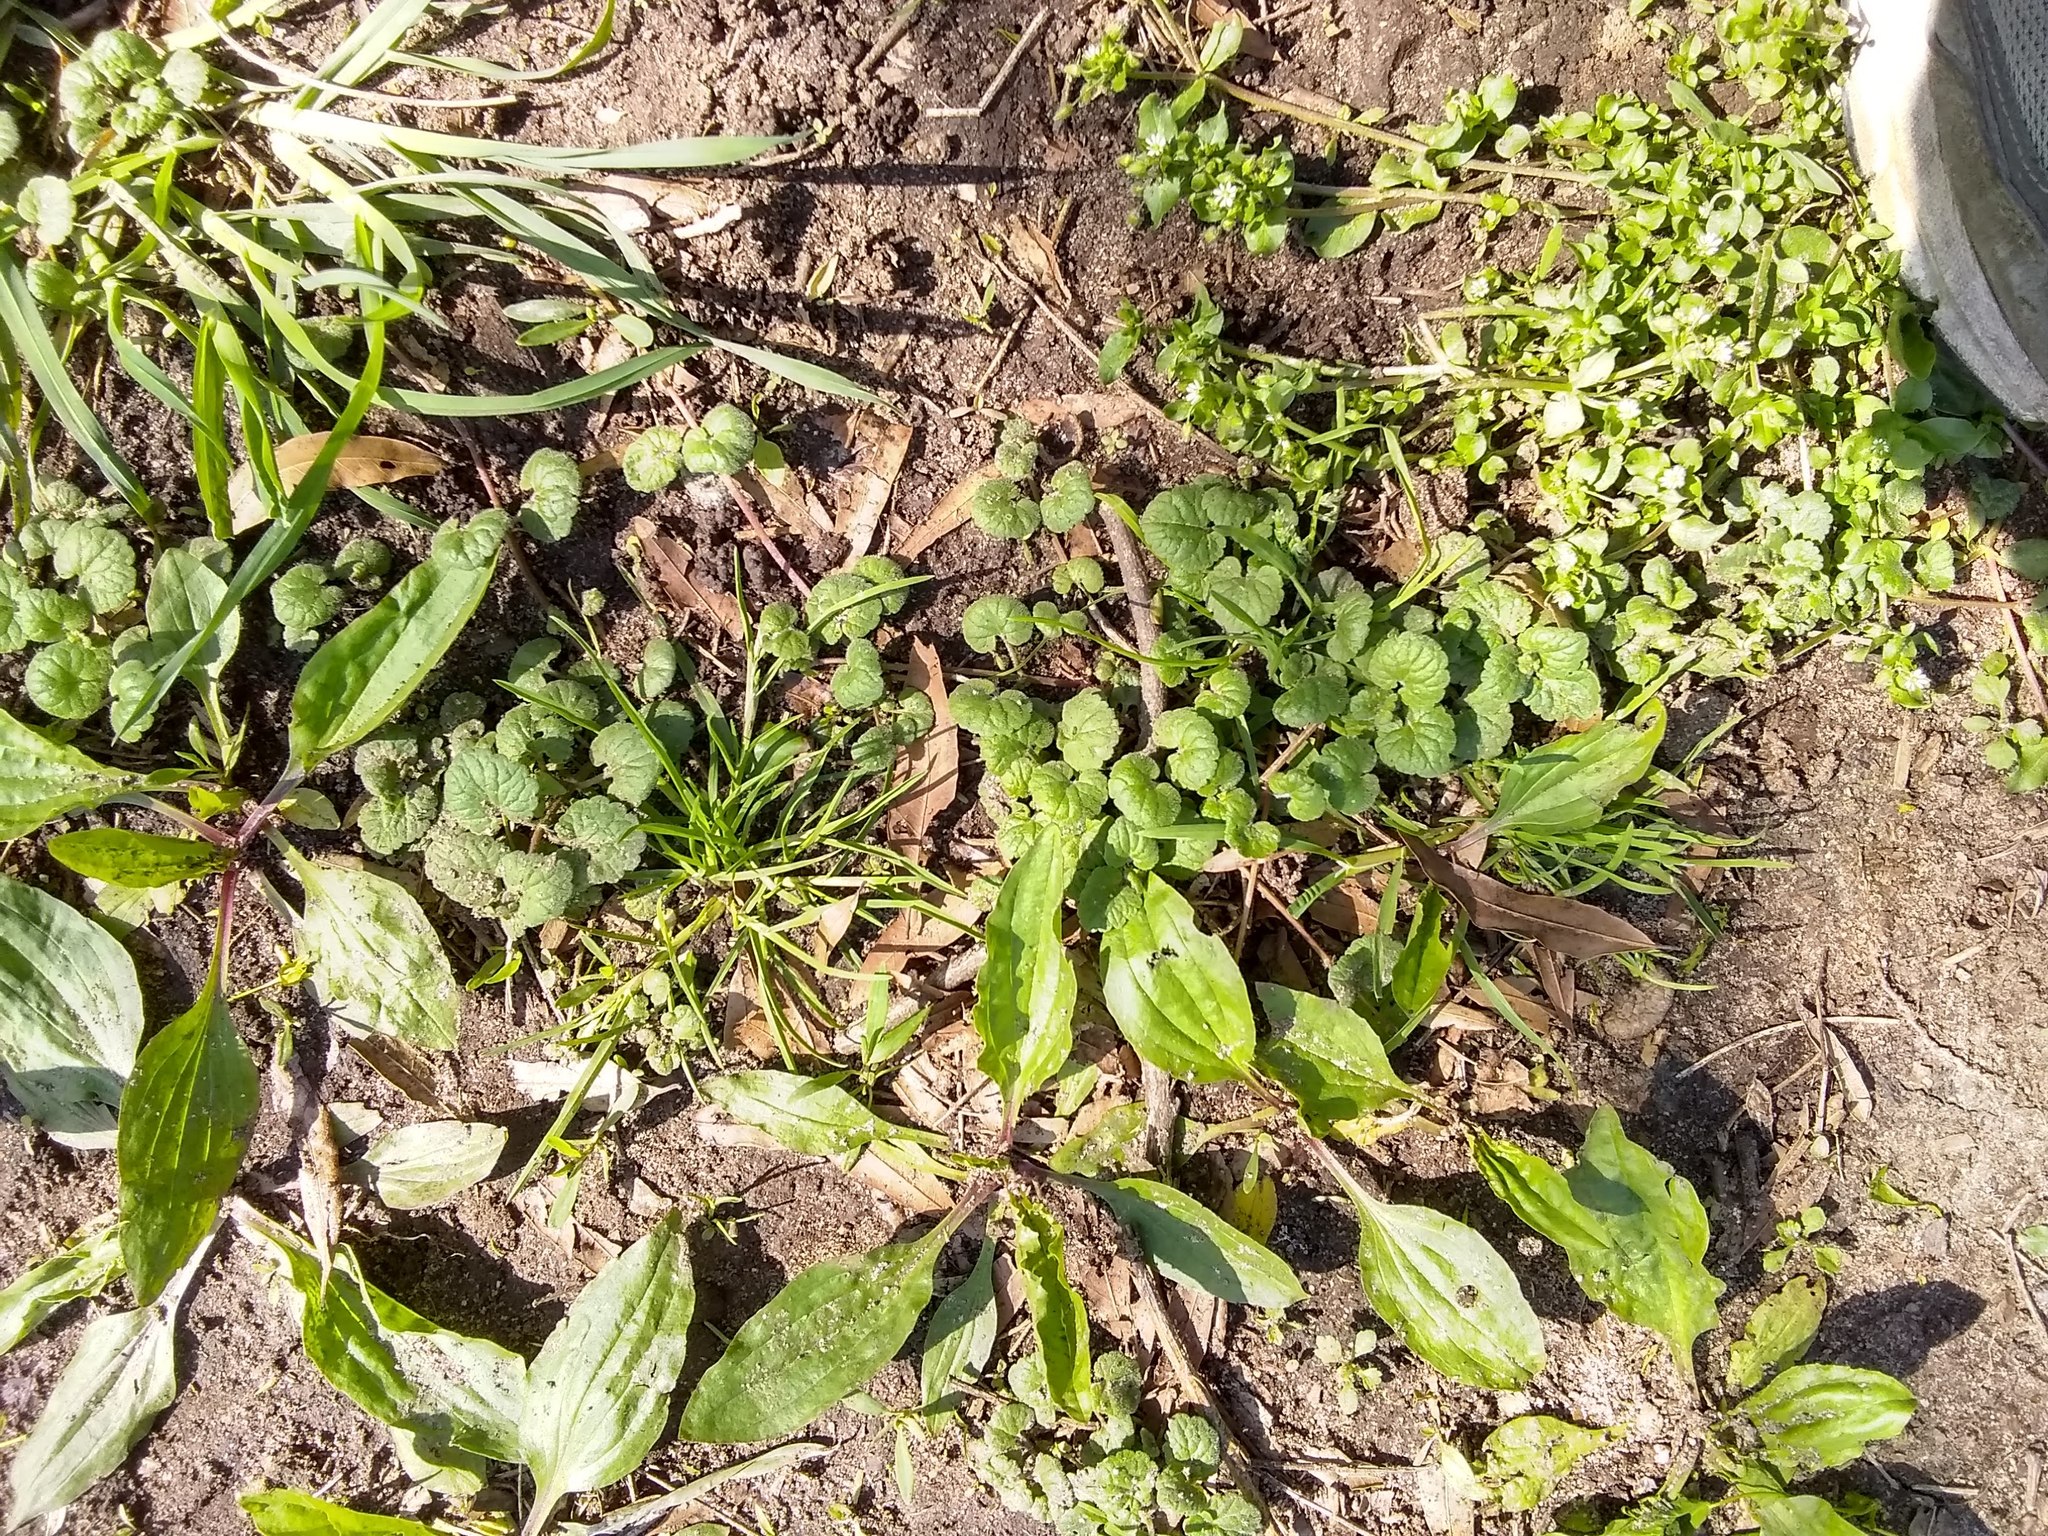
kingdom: Plantae
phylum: Tracheophyta
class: Magnoliopsida
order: Lamiales
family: Lamiaceae
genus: Glechoma
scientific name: Glechoma hederacea
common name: Ground ivy
